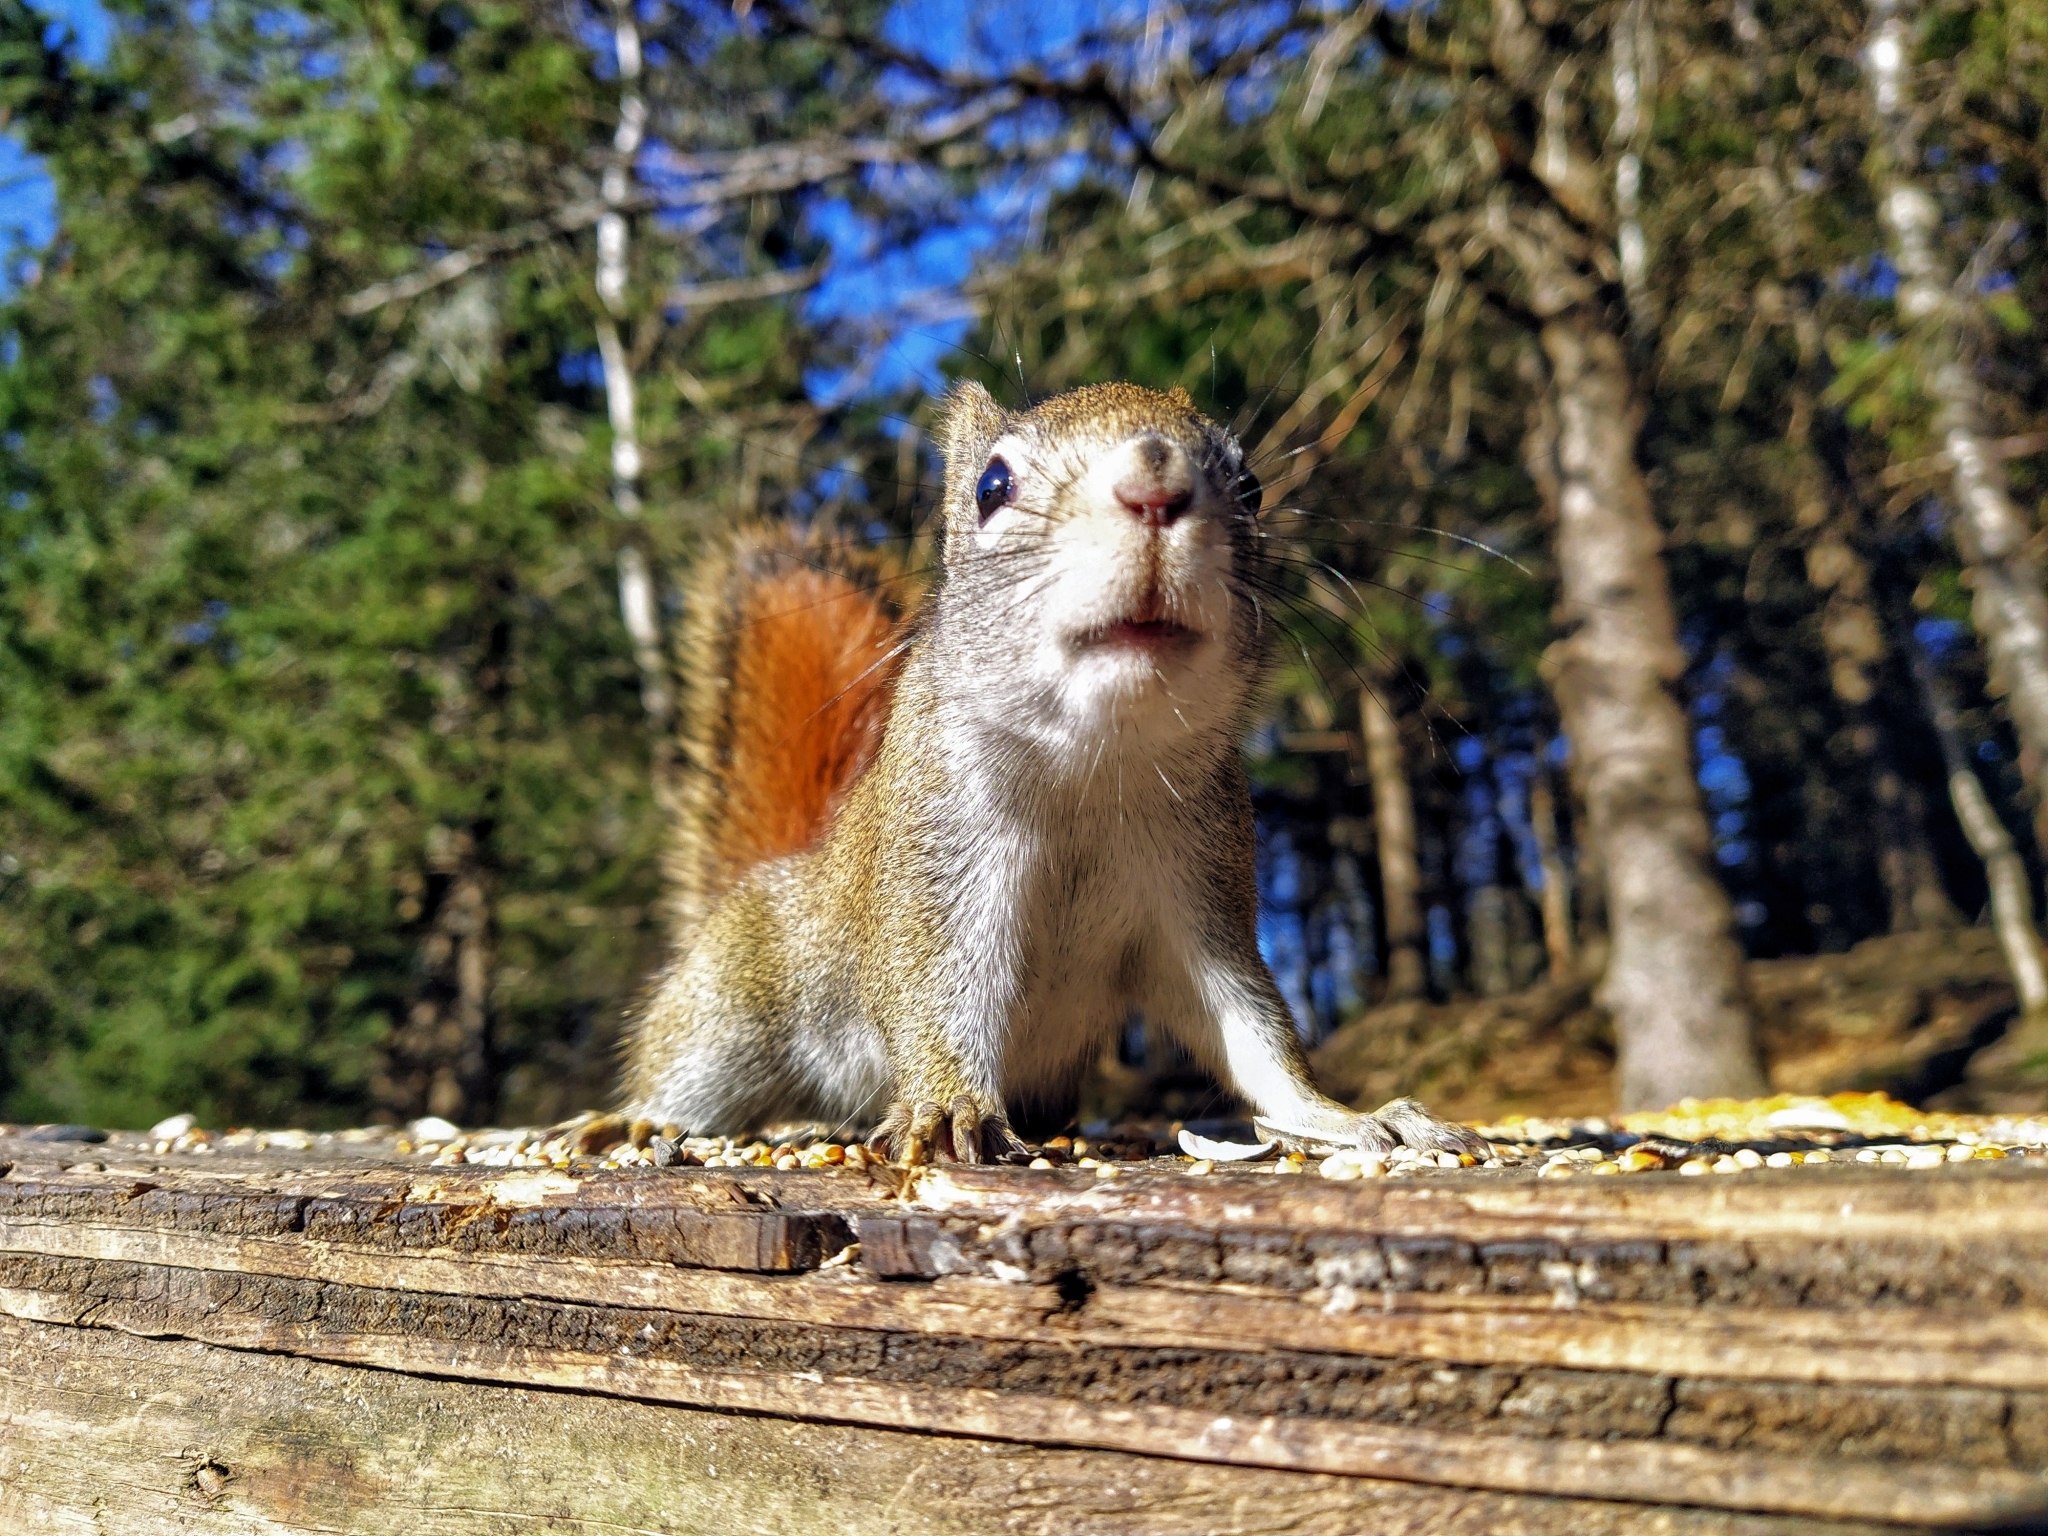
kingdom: Animalia
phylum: Chordata
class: Mammalia
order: Rodentia
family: Sciuridae
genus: Tamiasciurus
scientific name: Tamiasciurus hudsonicus
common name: Red squirrel
